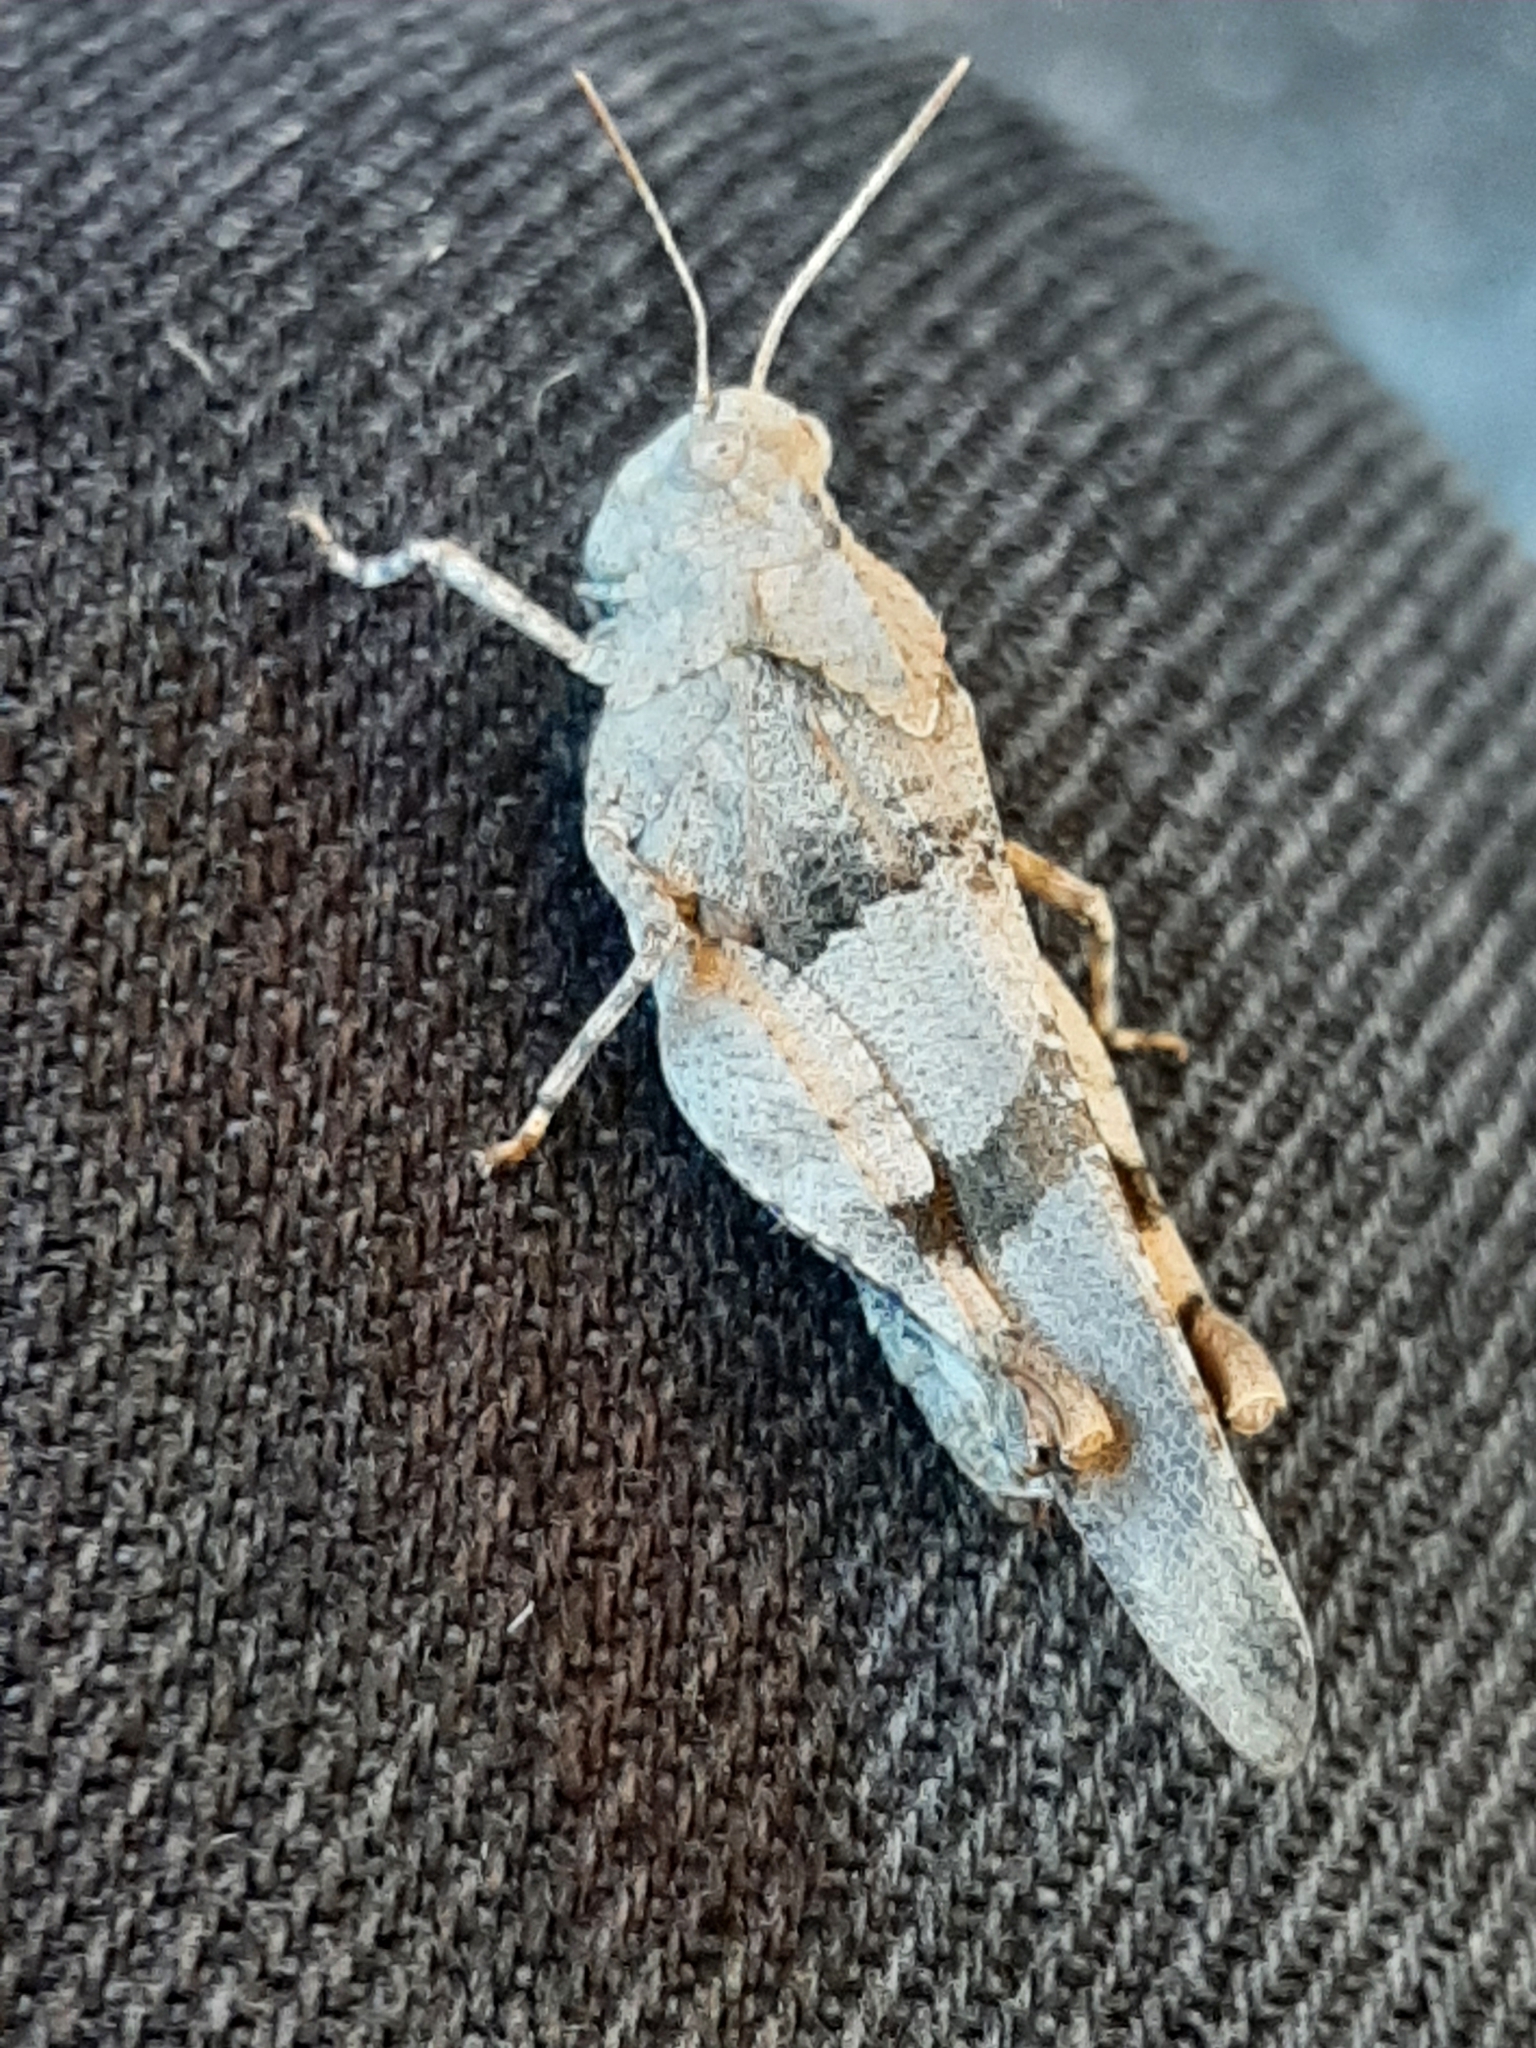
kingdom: Animalia
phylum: Arthropoda
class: Insecta
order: Orthoptera
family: Acrididae
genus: Oedipoda
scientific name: Oedipoda caerulescens
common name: Blue-winged grasshopper
